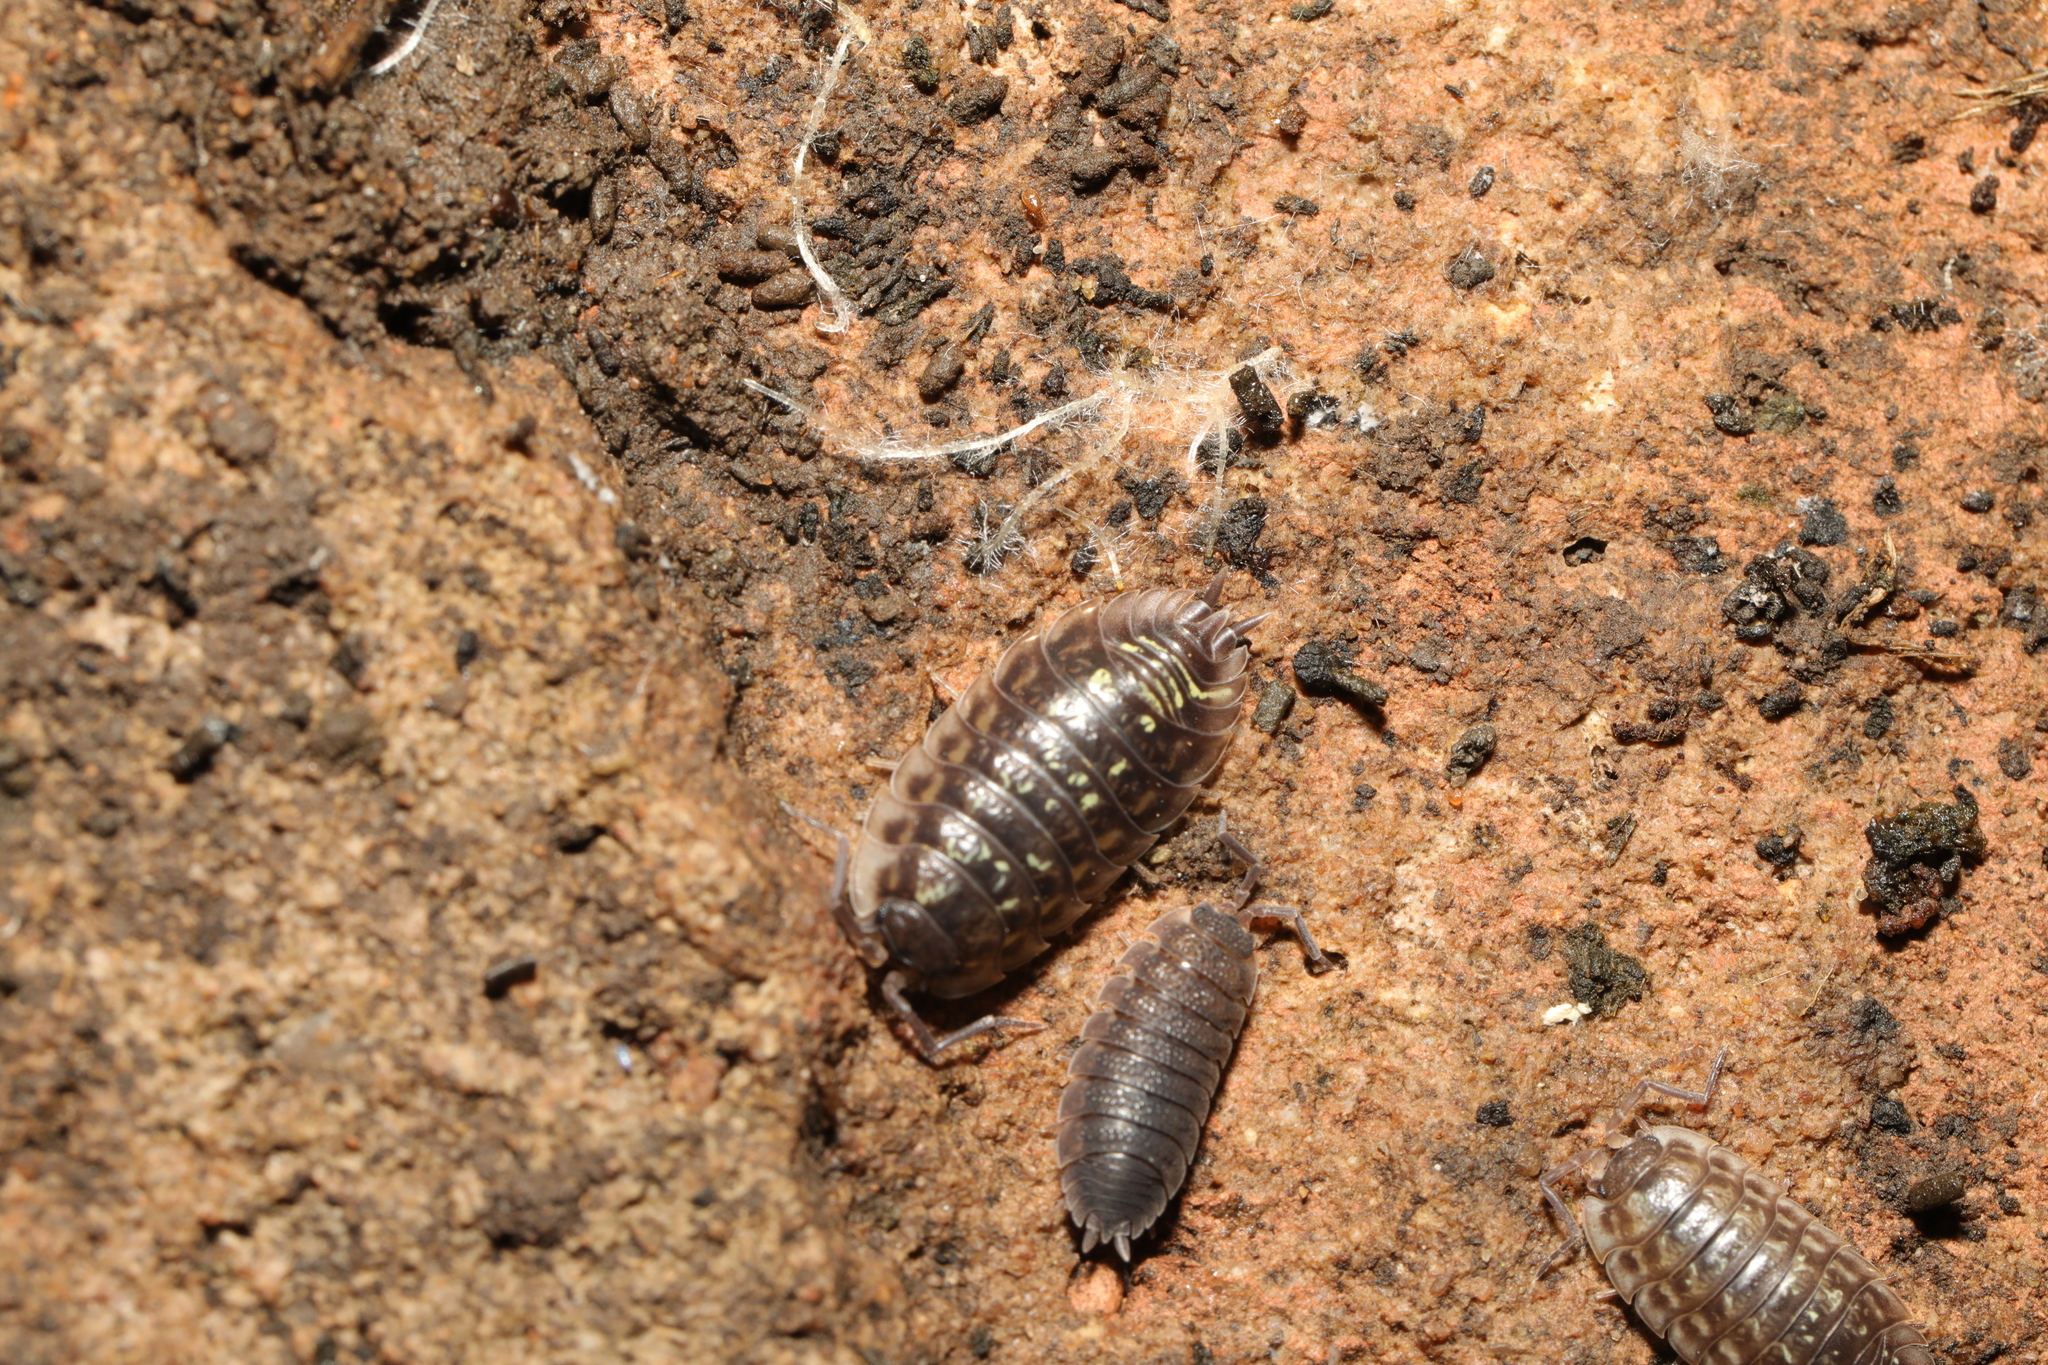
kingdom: Animalia
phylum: Arthropoda
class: Malacostraca
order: Isopoda
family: Porcellionidae
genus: Porcellio
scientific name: Porcellio scaber
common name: Common rough woodlouse
